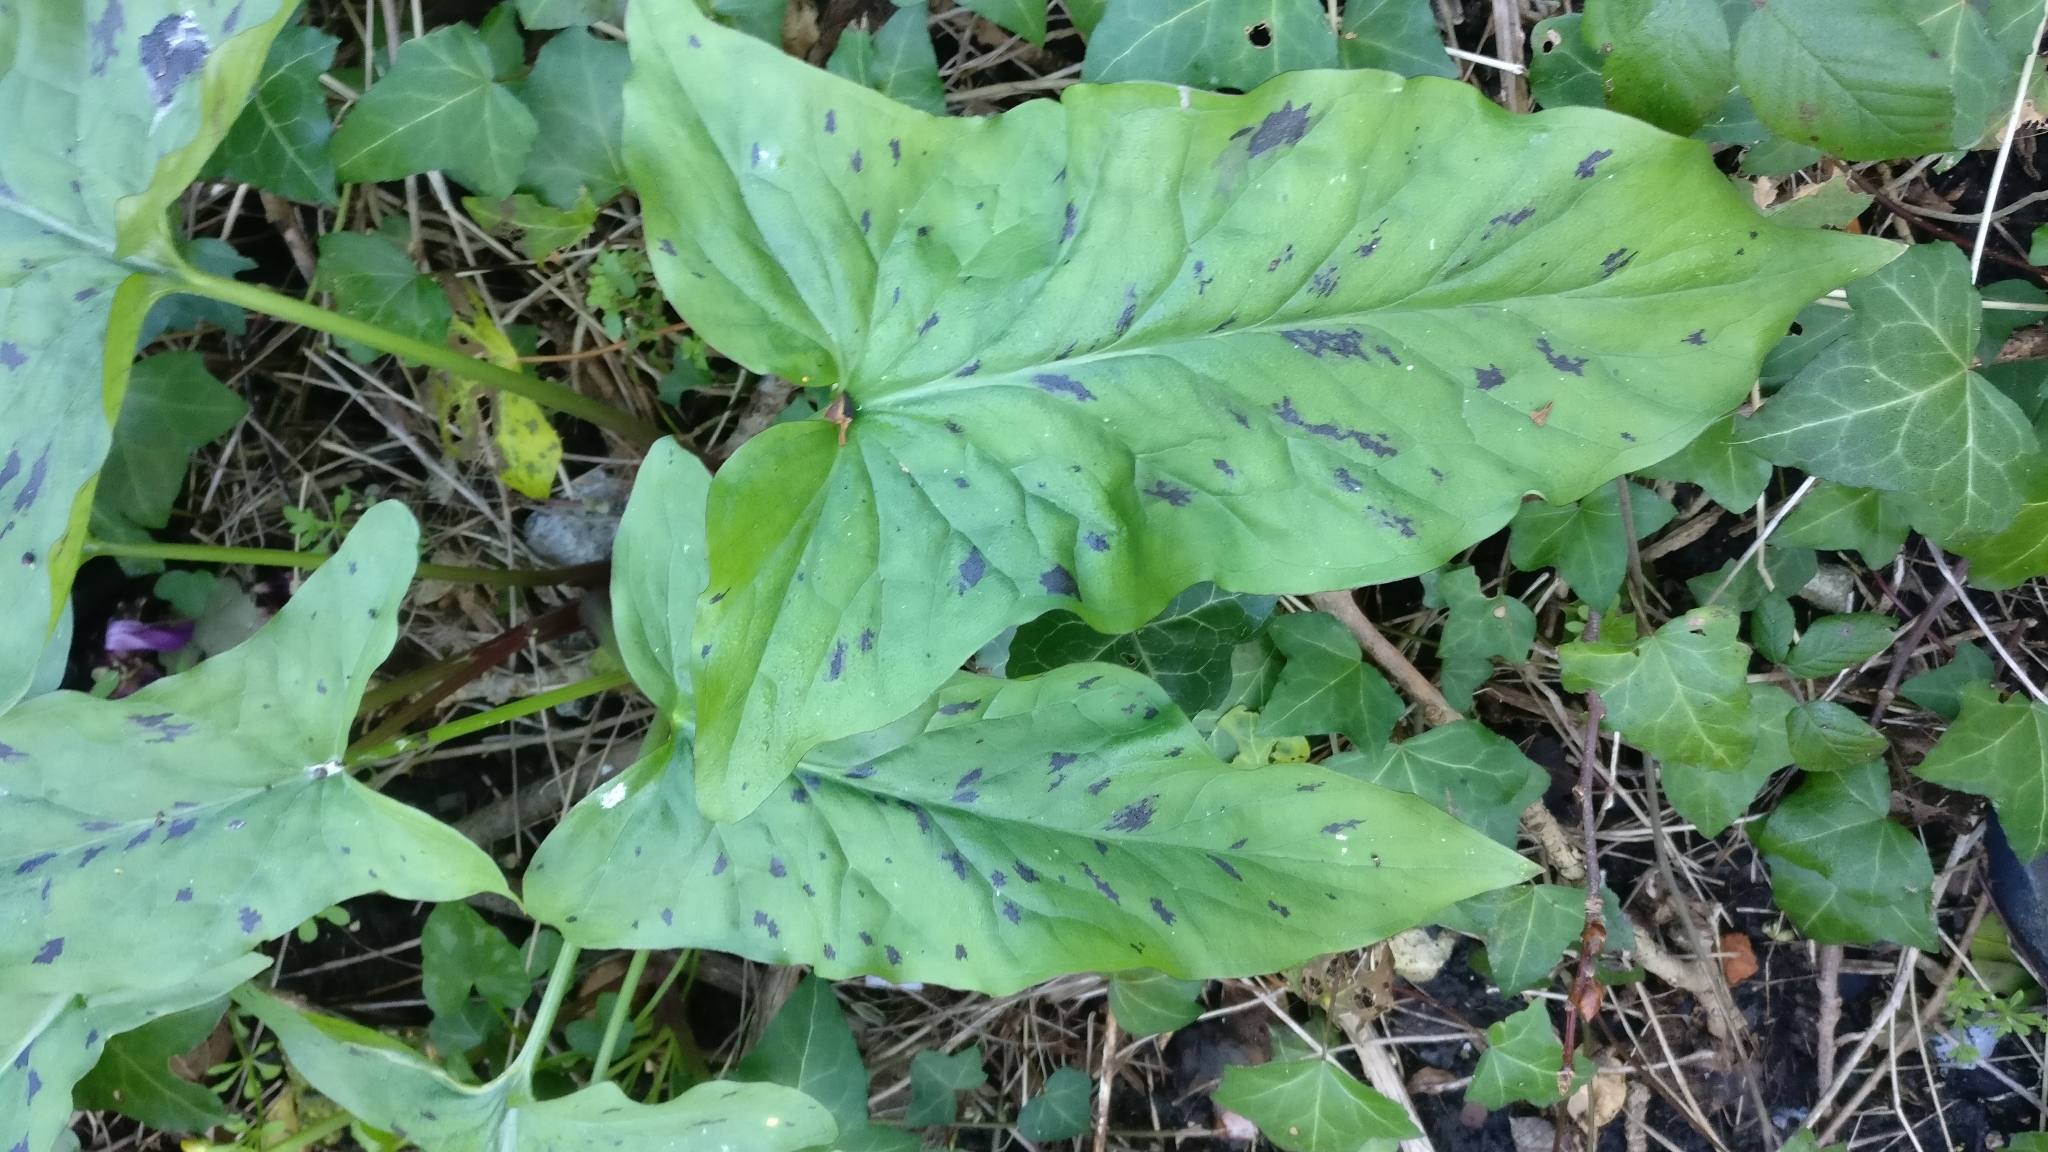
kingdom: Plantae
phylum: Tracheophyta
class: Liliopsida
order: Alismatales
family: Araceae
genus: Arum
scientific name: Arum maculatum
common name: Lords-and-ladies
